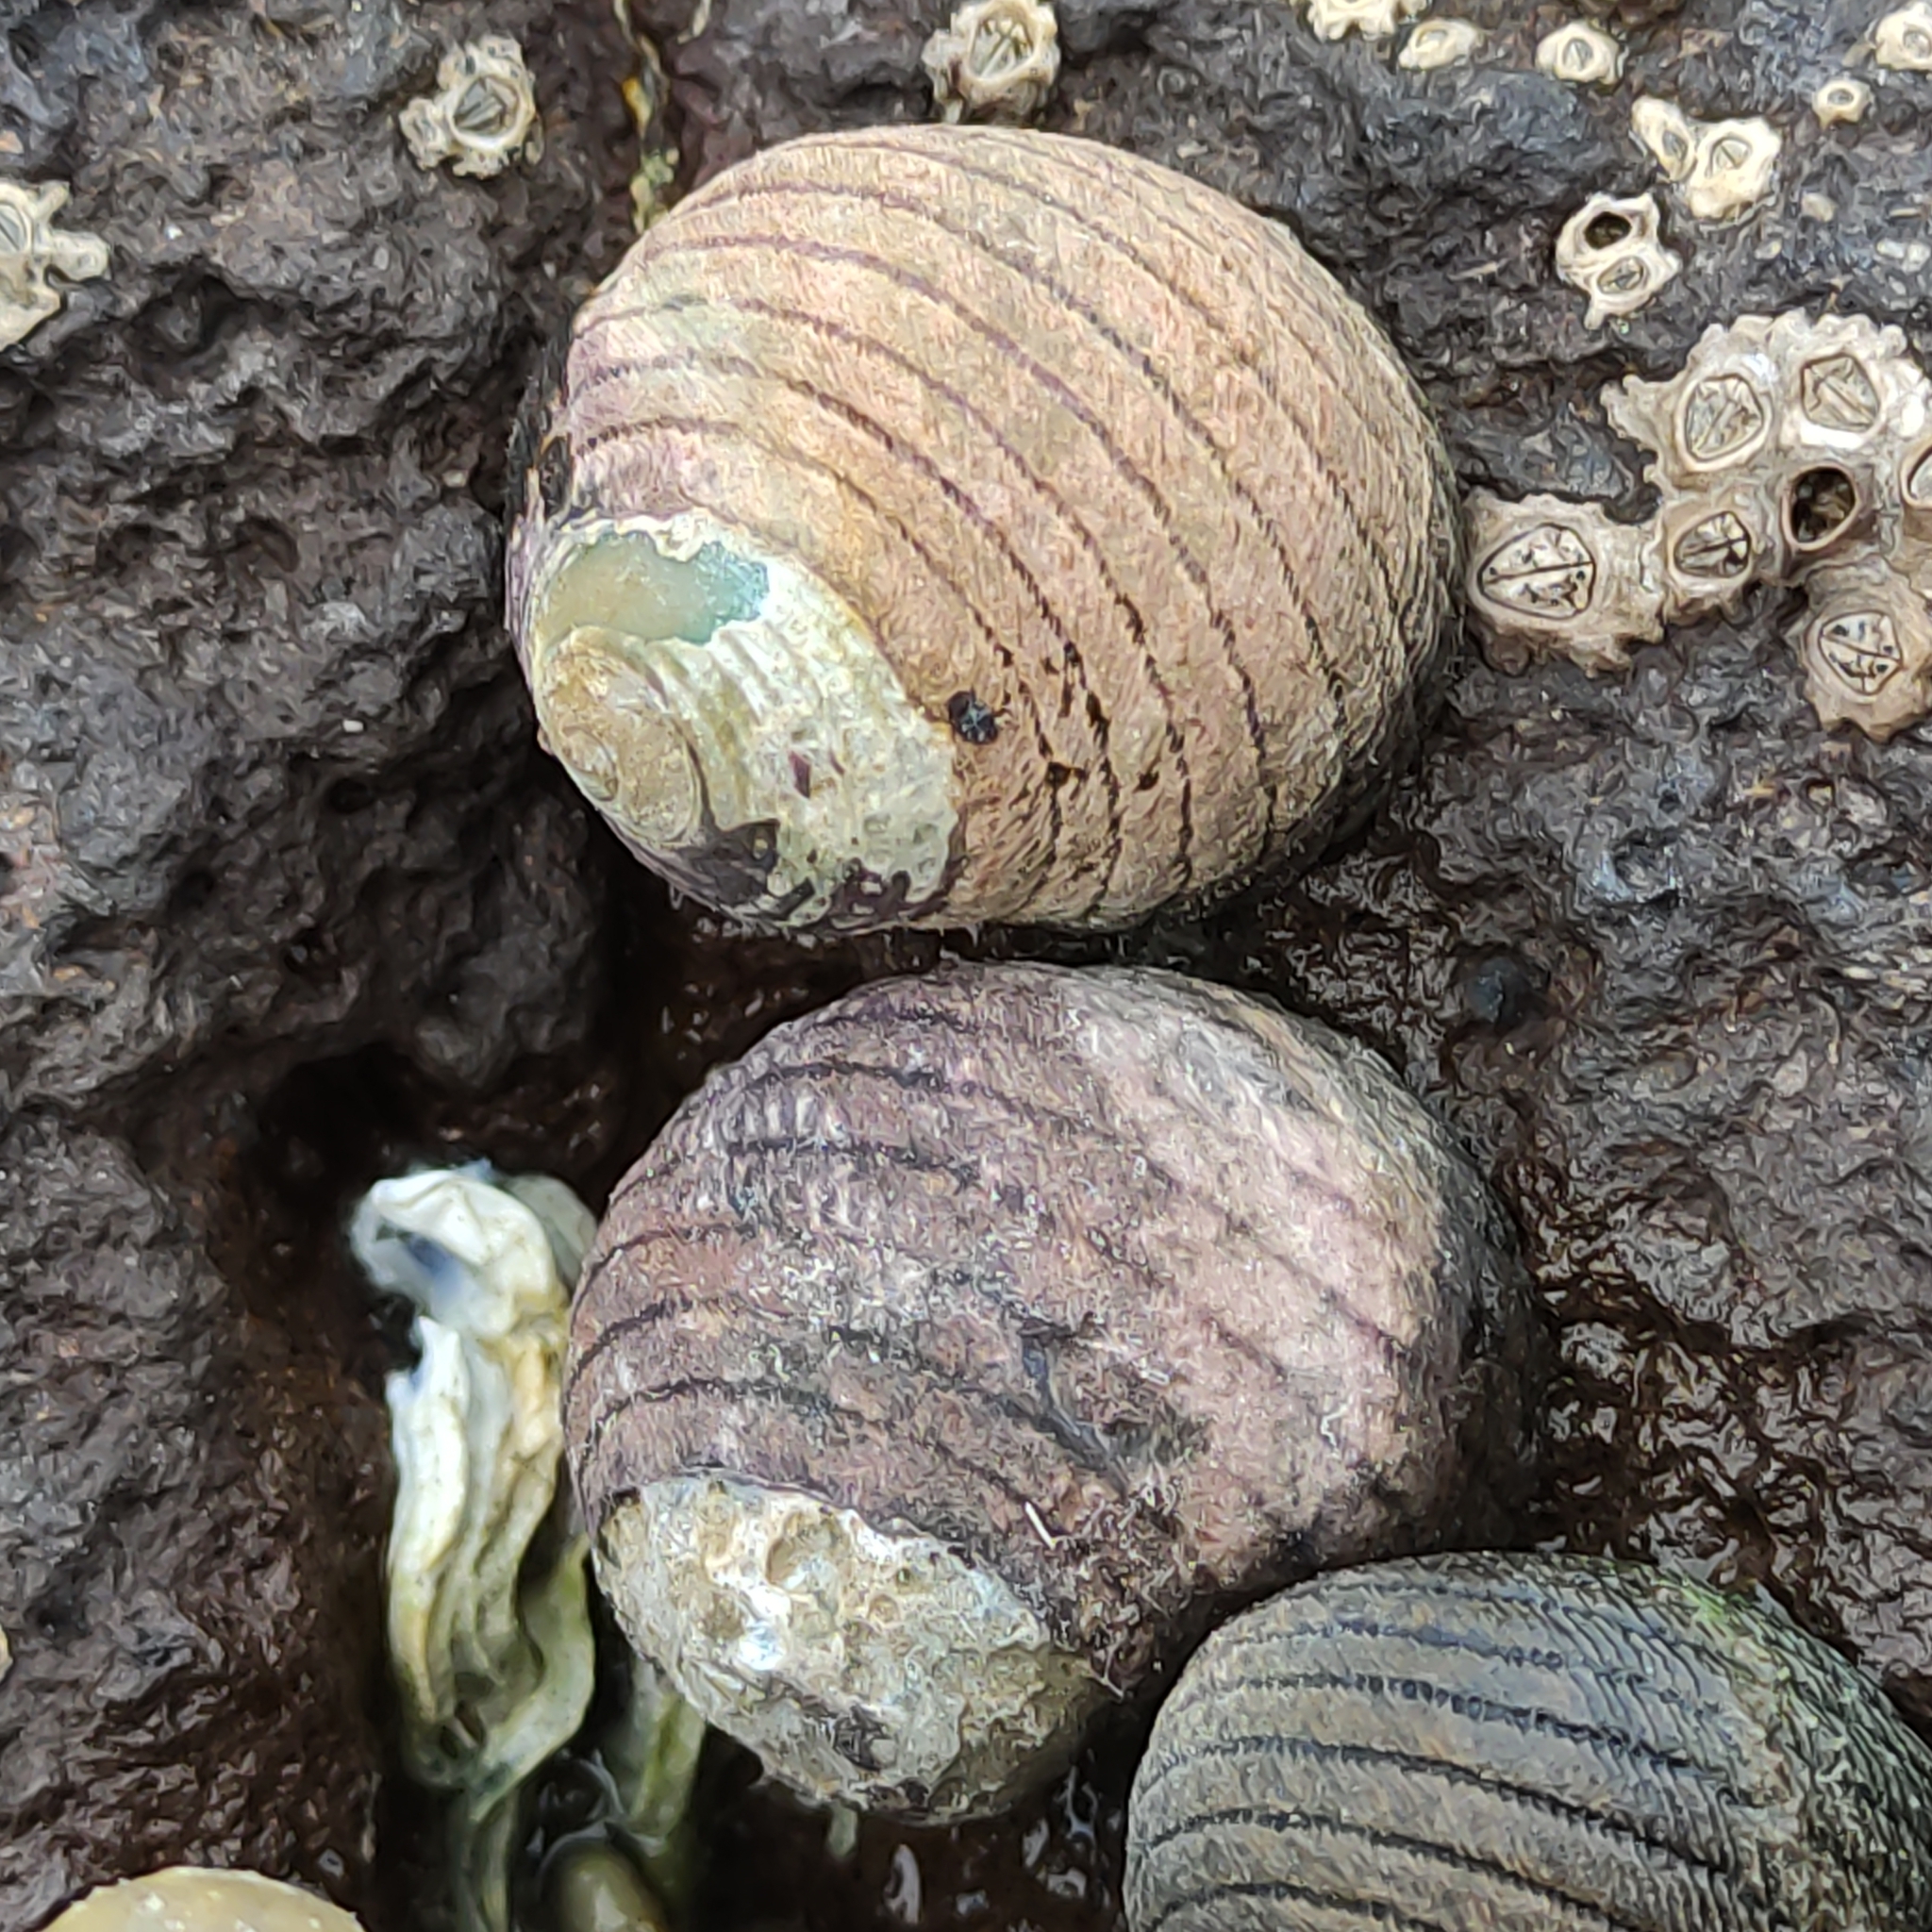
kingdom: Animalia
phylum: Mollusca
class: Gastropoda
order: Trochida
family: Trochidae
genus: Diloma
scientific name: Diloma aethiops
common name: Scorched monodont
